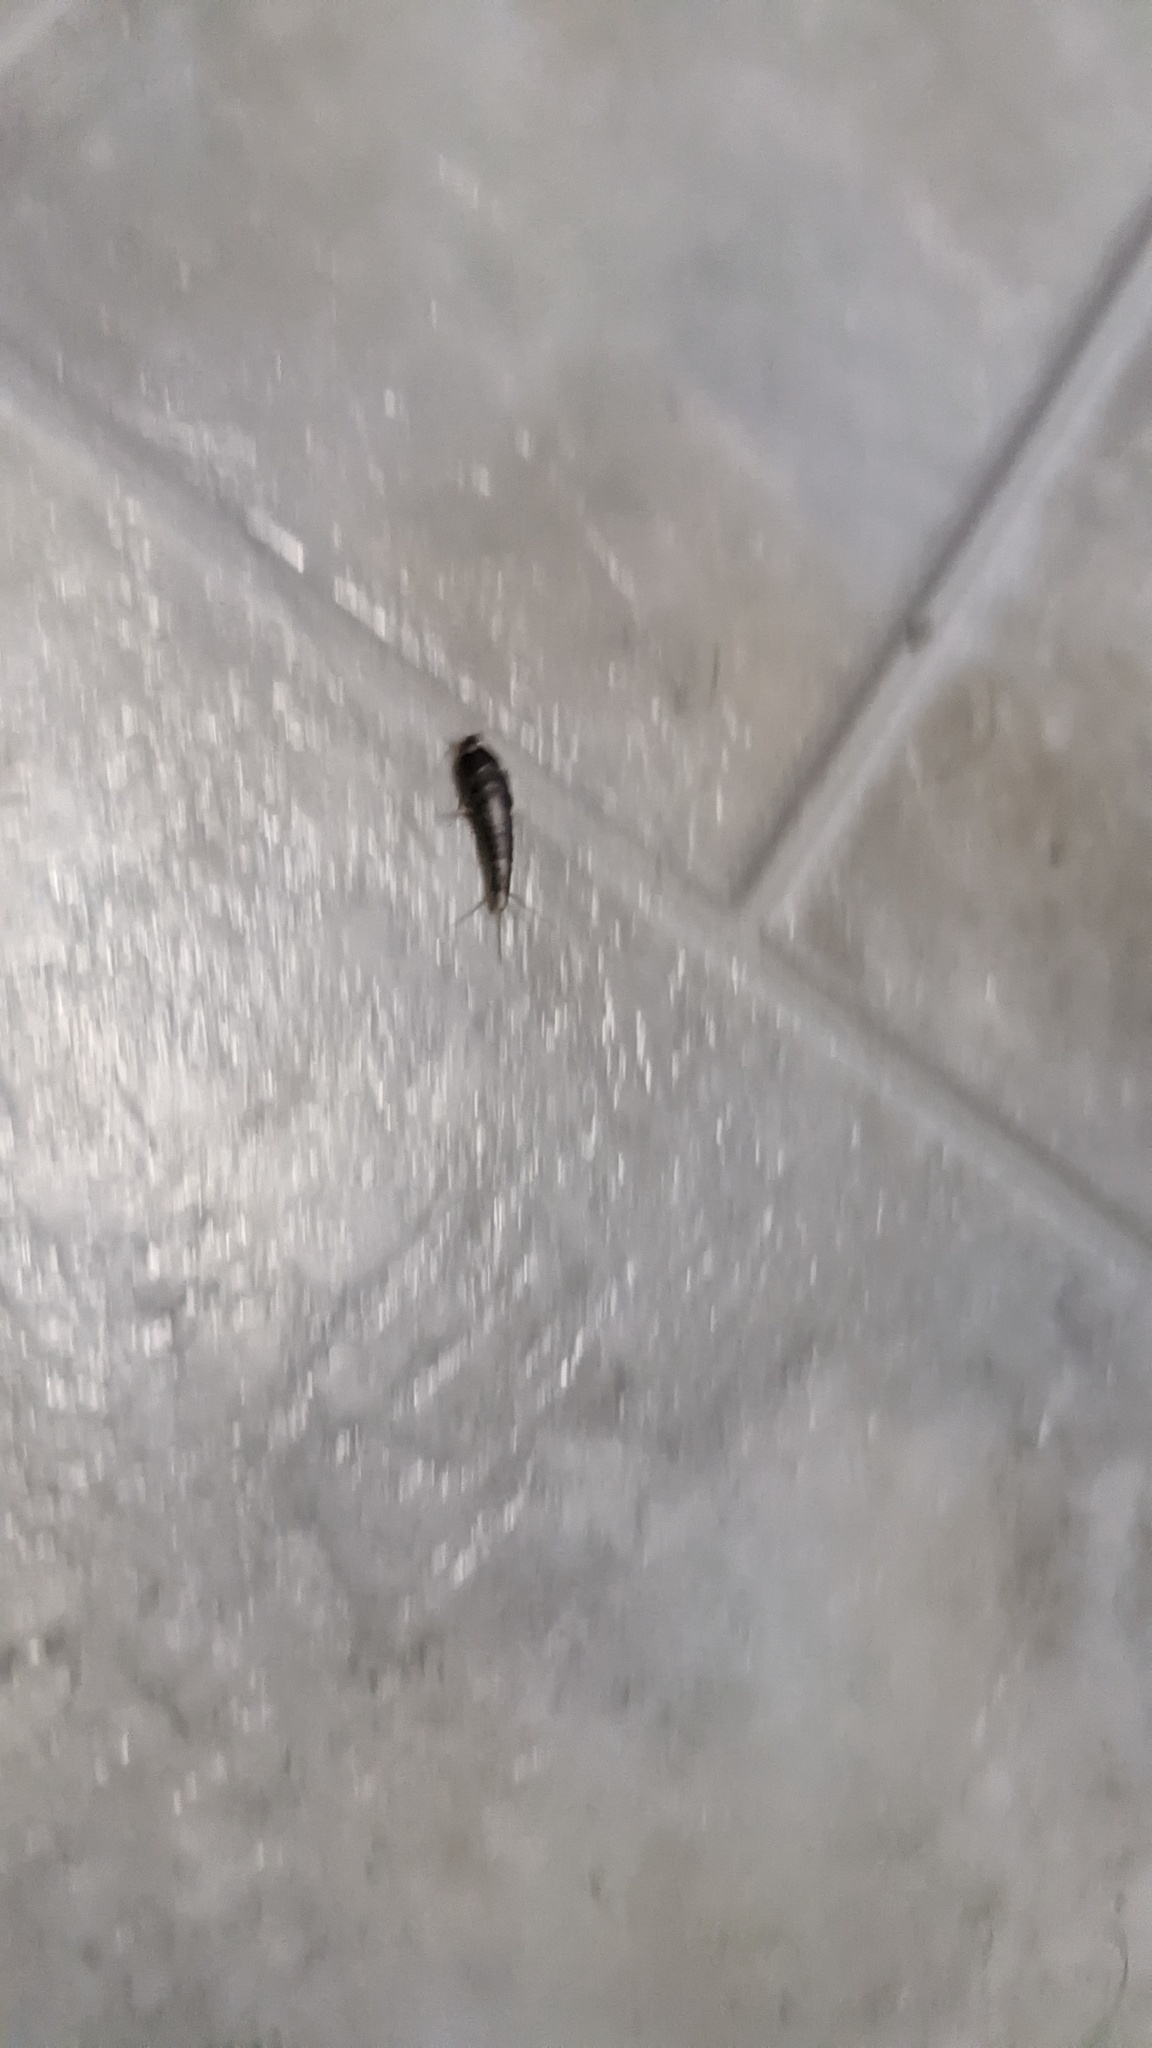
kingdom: Animalia
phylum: Arthropoda
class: Insecta
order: Zygentoma
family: Lepismatidae
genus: Lepisma
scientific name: Lepisma saccharinum
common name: Silverfish
